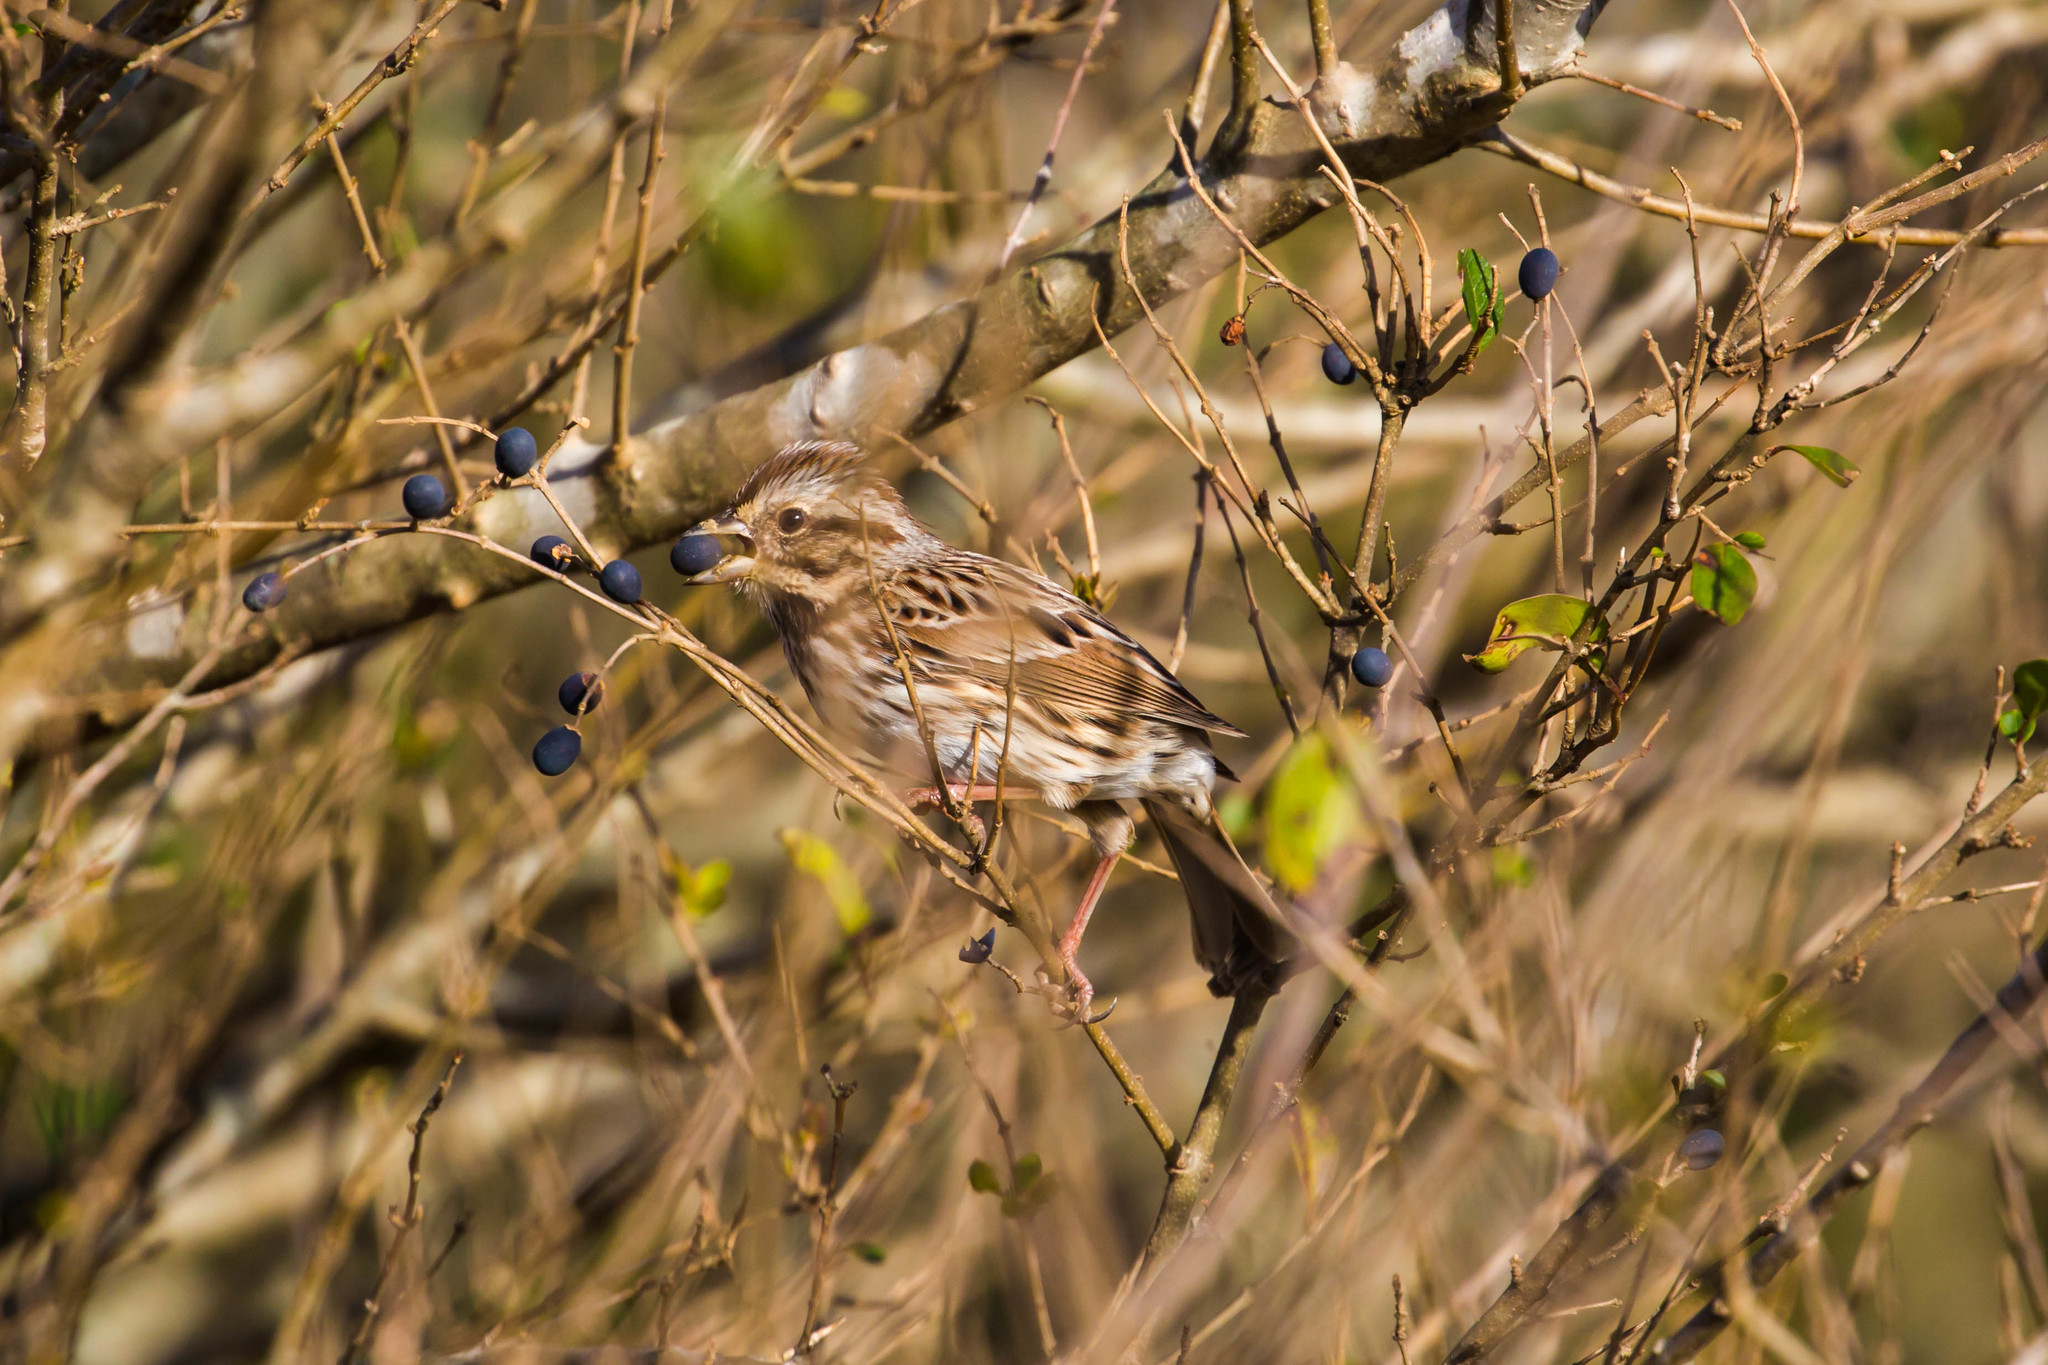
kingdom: Animalia
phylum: Chordata
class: Aves
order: Passeriformes
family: Passerellidae
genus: Melospiza
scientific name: Melospiza melodia
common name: Song sparrow
